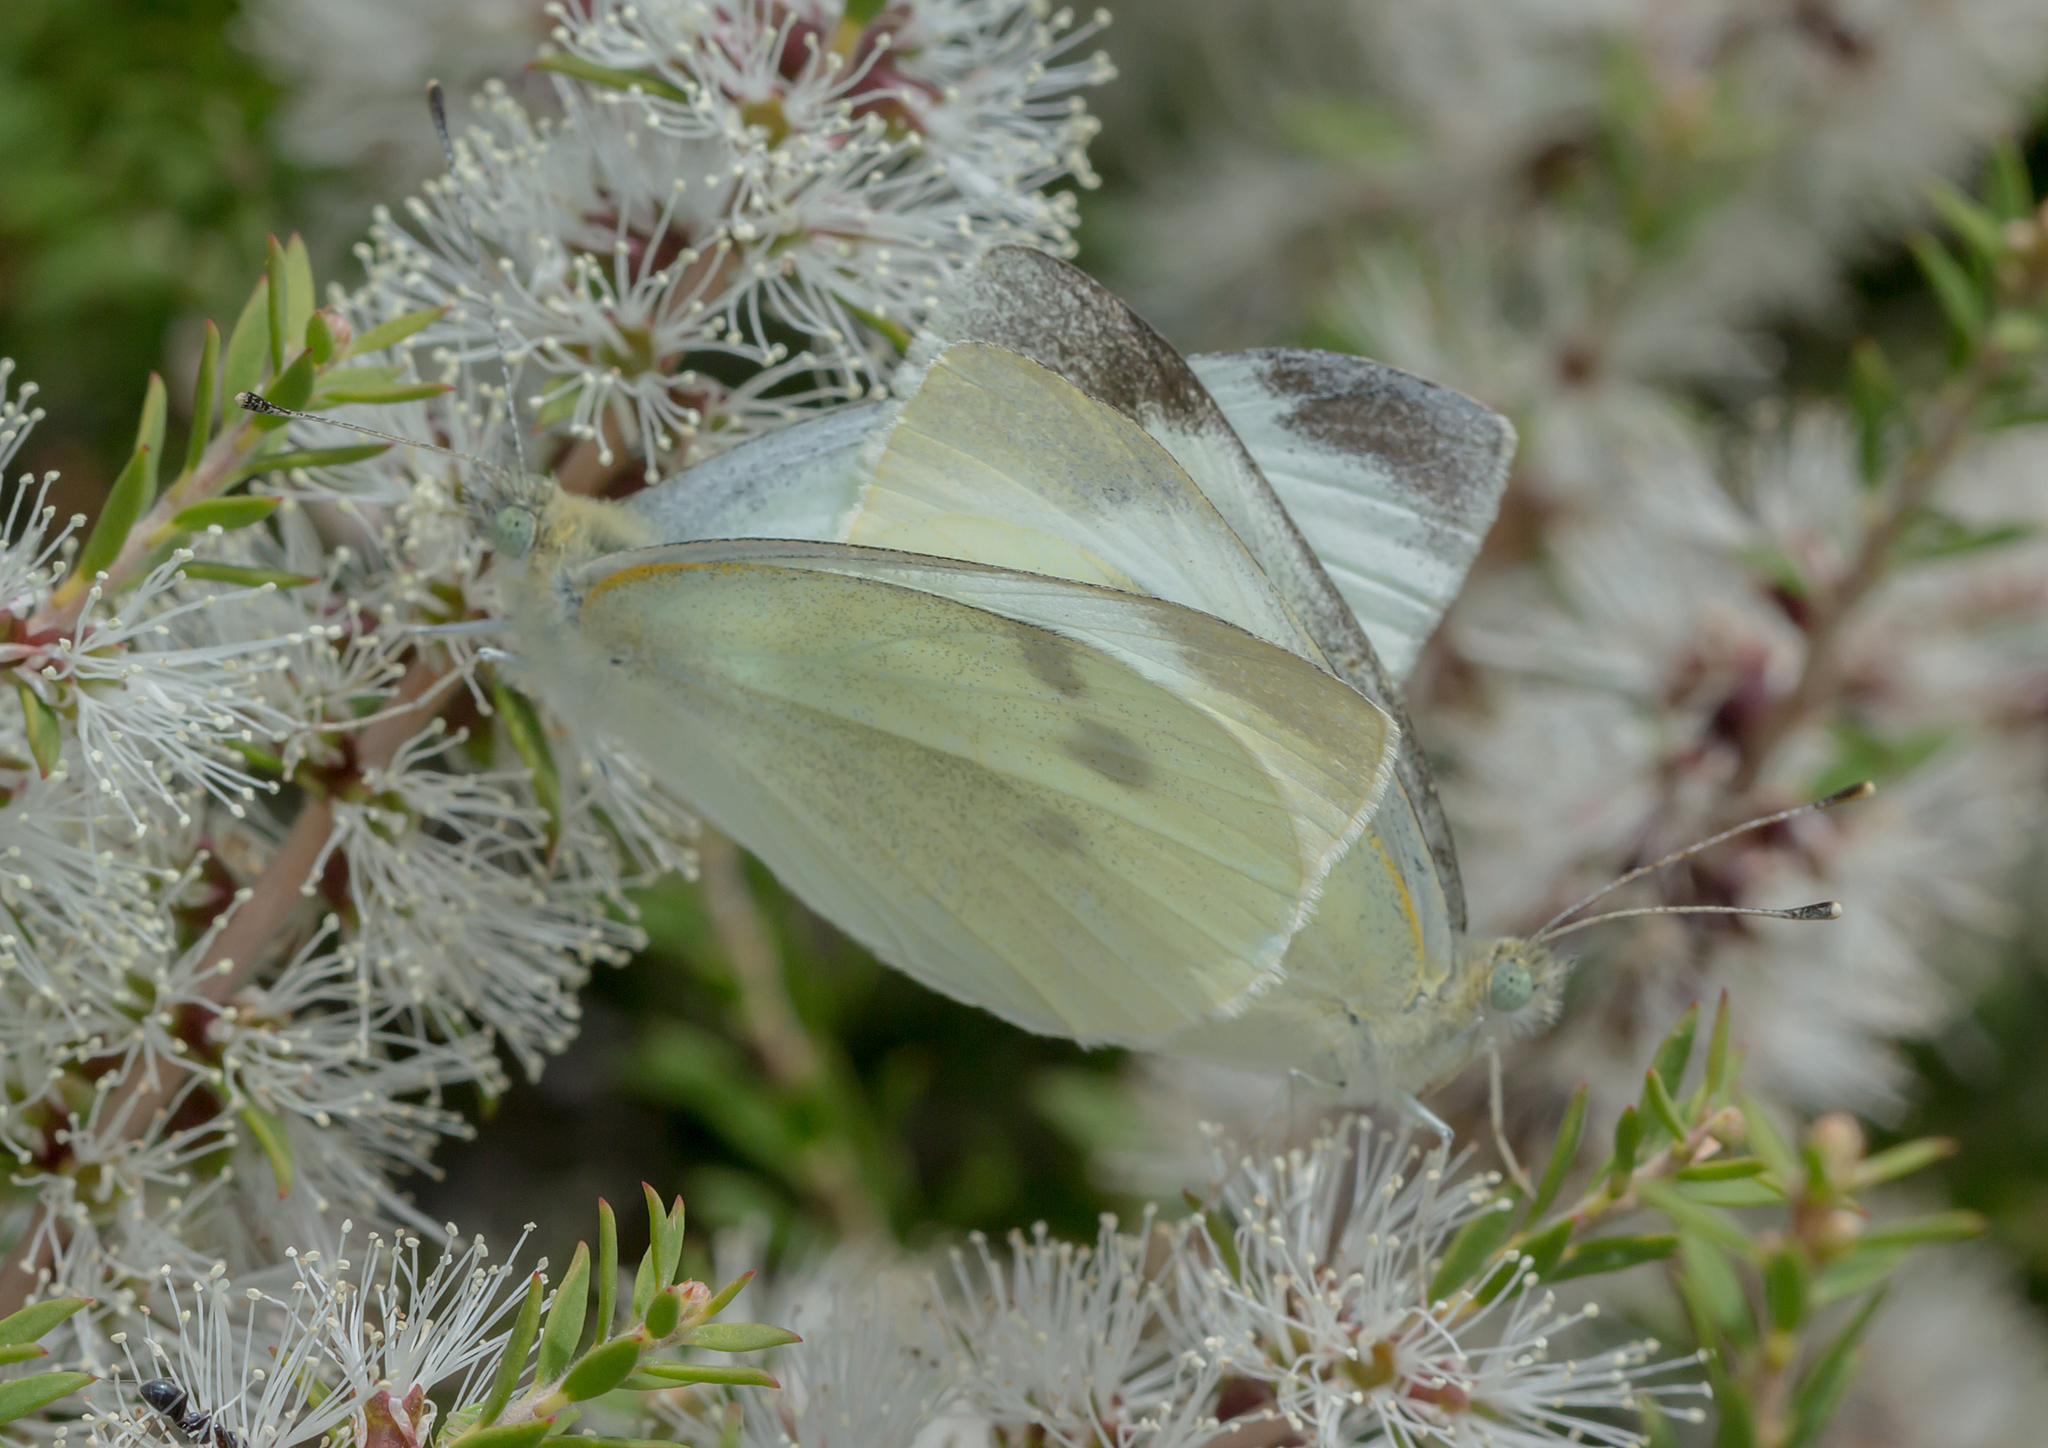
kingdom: Animalia
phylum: Arthropoda
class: Insecta
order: Lepidoptera
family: Pieridae
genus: Pieris
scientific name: Pieris rapae
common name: Small white
